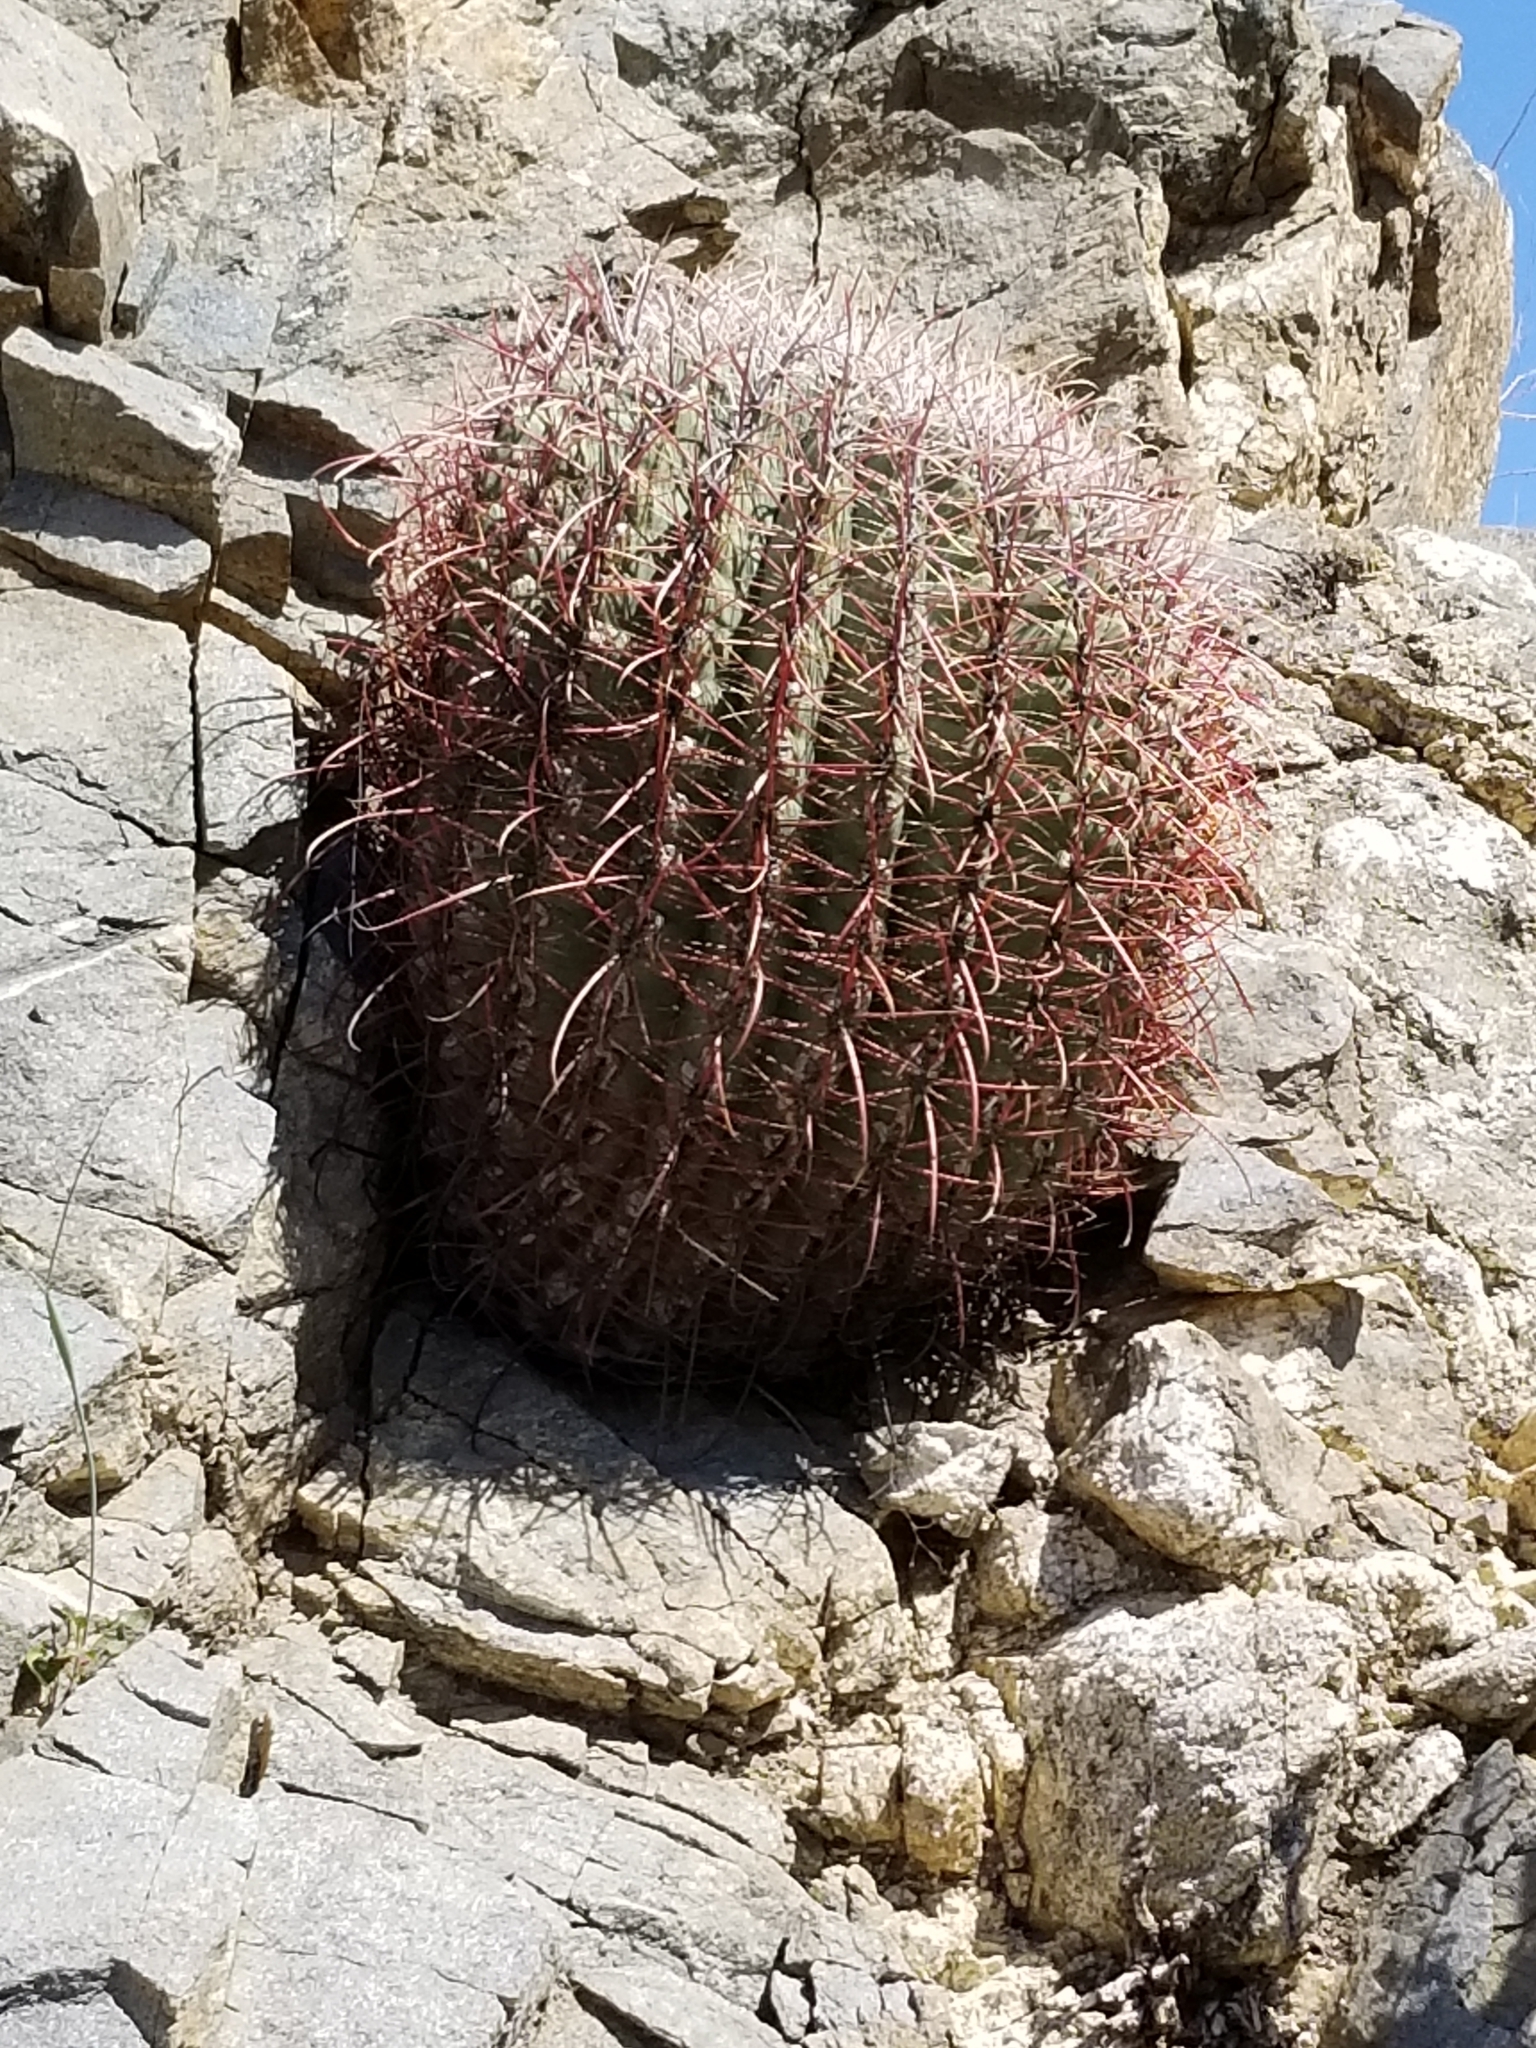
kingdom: Plantae
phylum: Tracheophyta
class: Magnoliopsida
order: Caryophyllales
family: Cactaceae
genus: Ferocactus
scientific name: Ferocactus cylindraceus
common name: California barrel cactus
